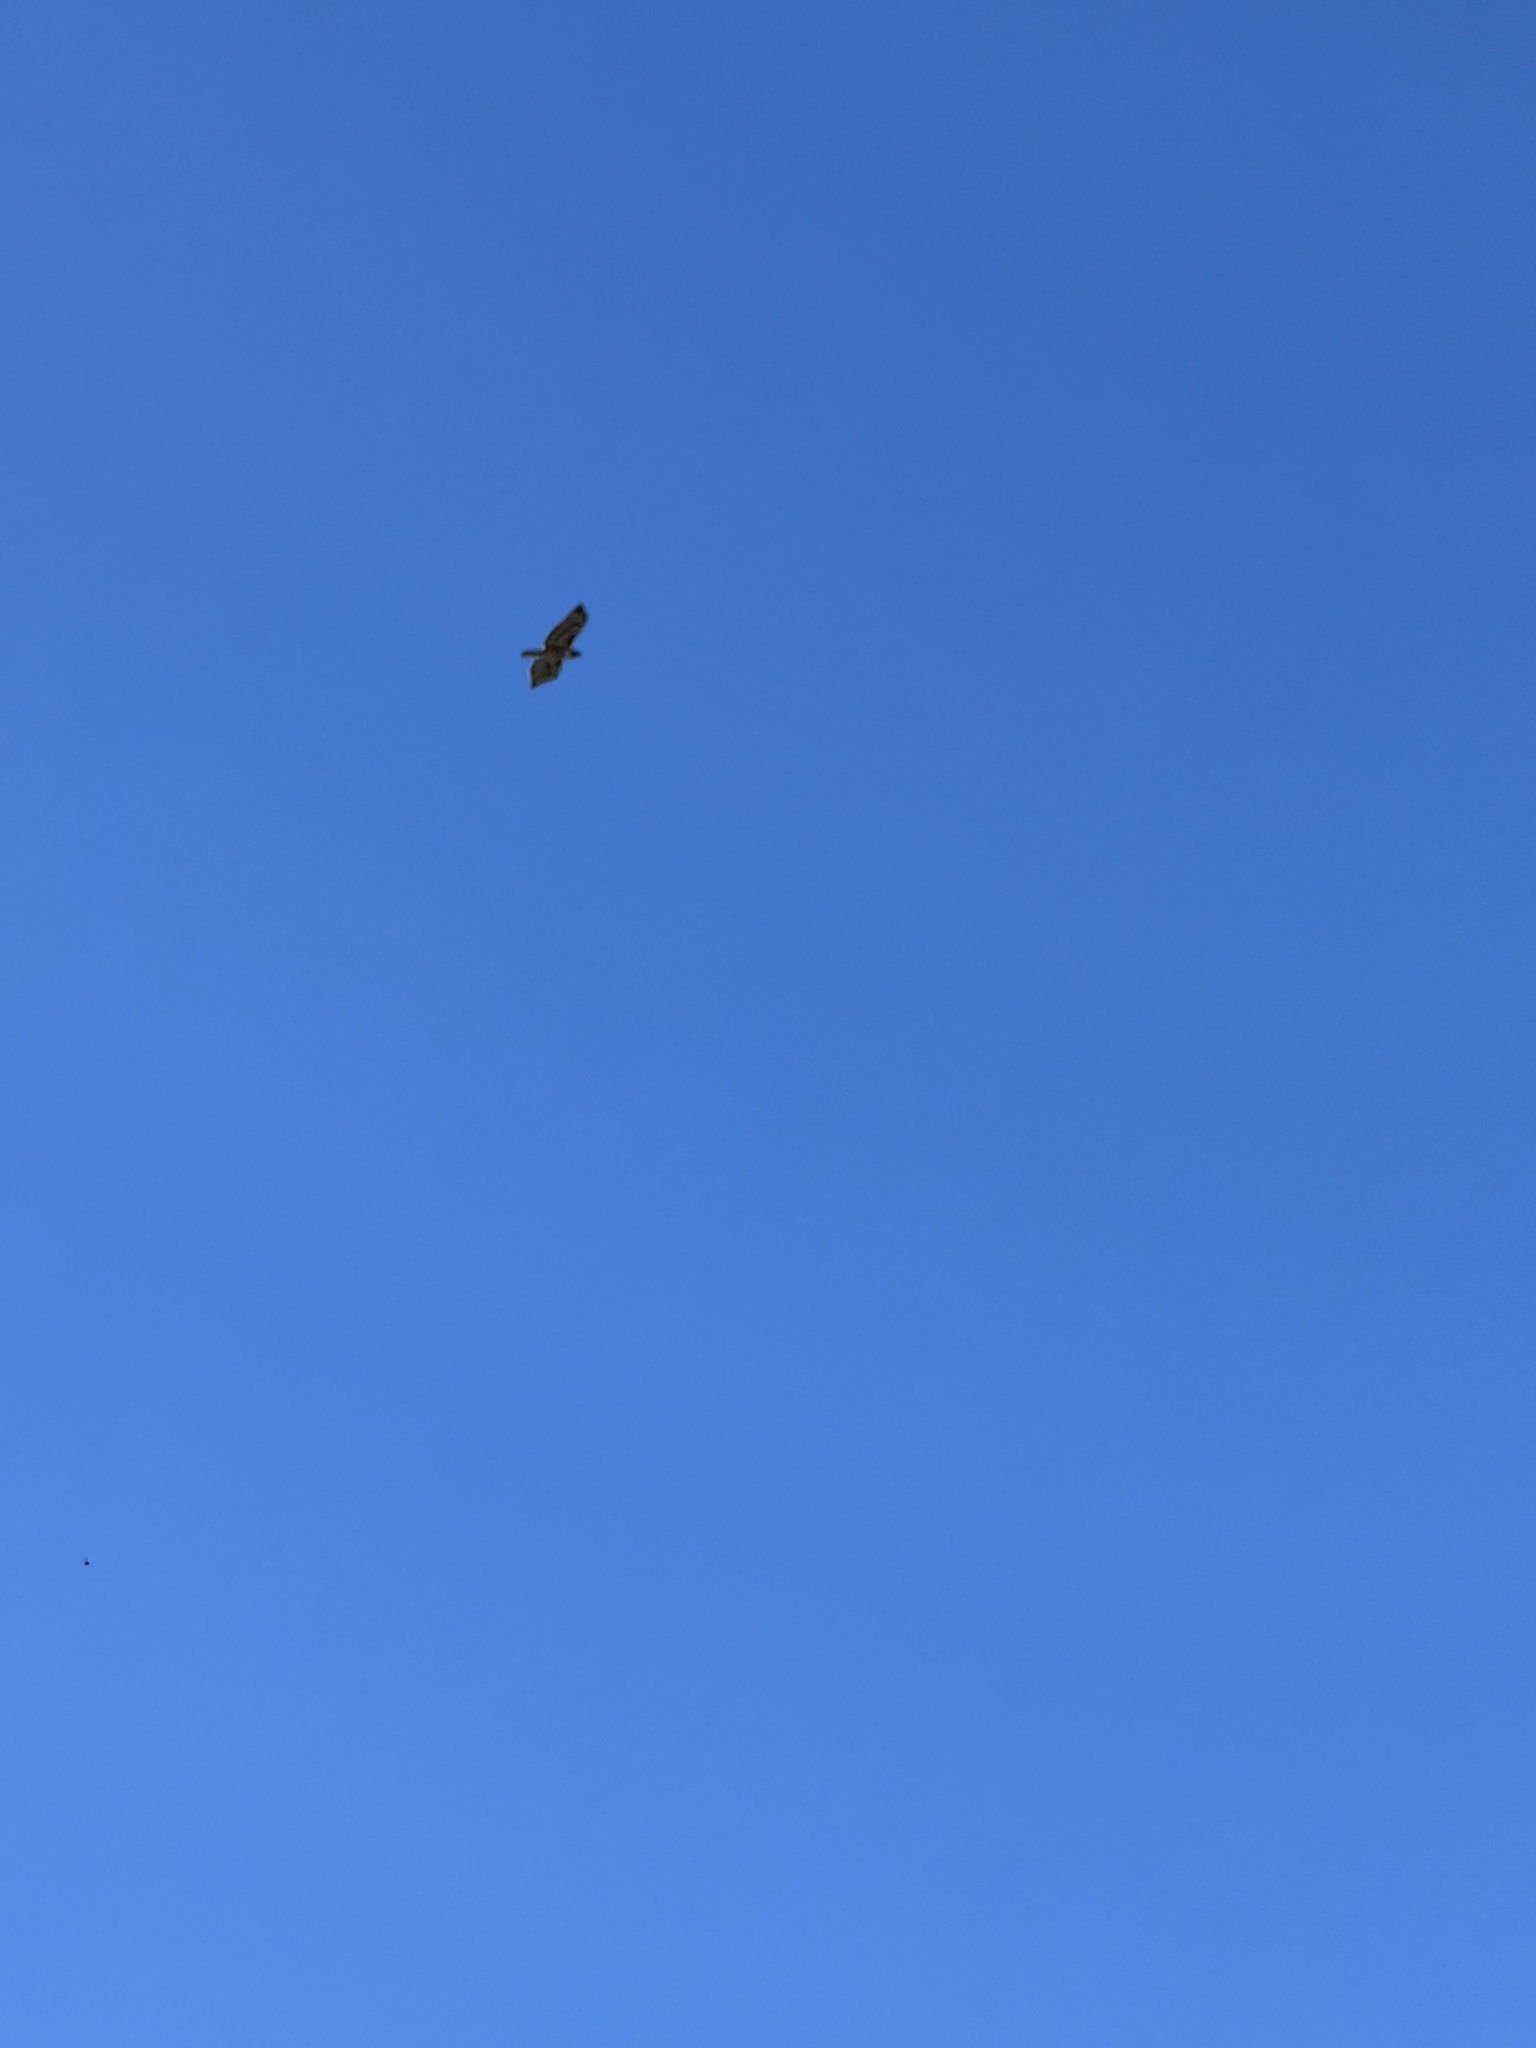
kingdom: Animalia
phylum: Chordata
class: Aves
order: Accipitriformes
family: Accipitridae
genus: Buteo
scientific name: Buteo jamaicensis
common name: Red-tailed hawk
